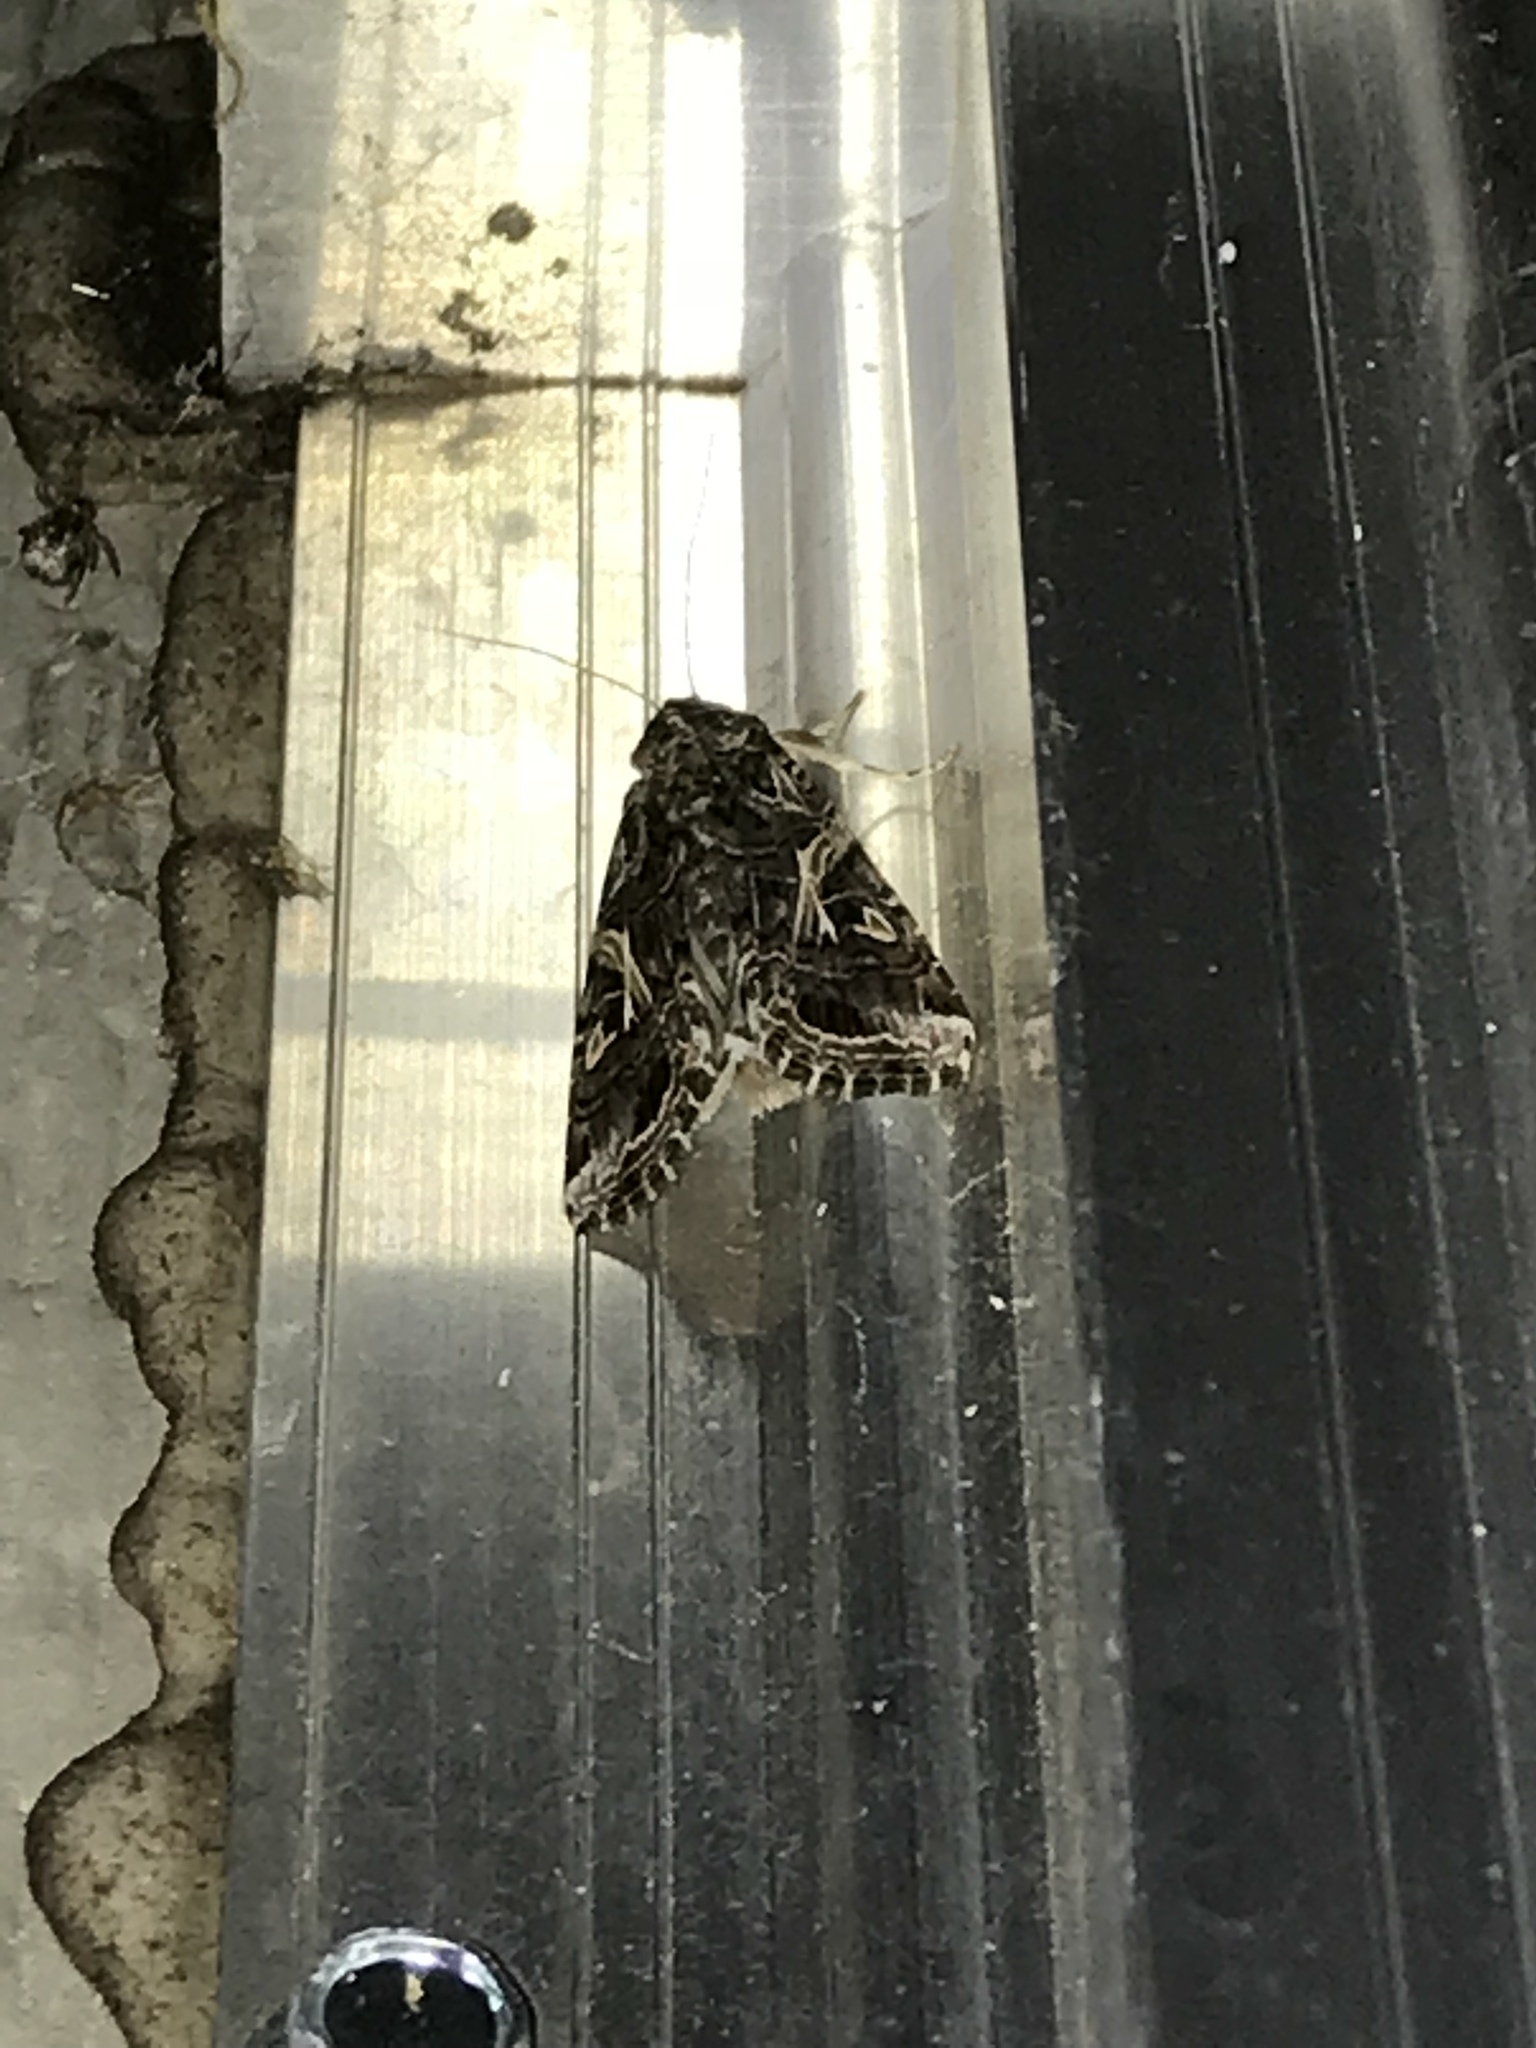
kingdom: Animalia
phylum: Arthropoda
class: Insecta
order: Lepidoptera
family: Noctuidae
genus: Spodoptera
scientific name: Spodoptera ornithogalli
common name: Yellow-striped armyworm
